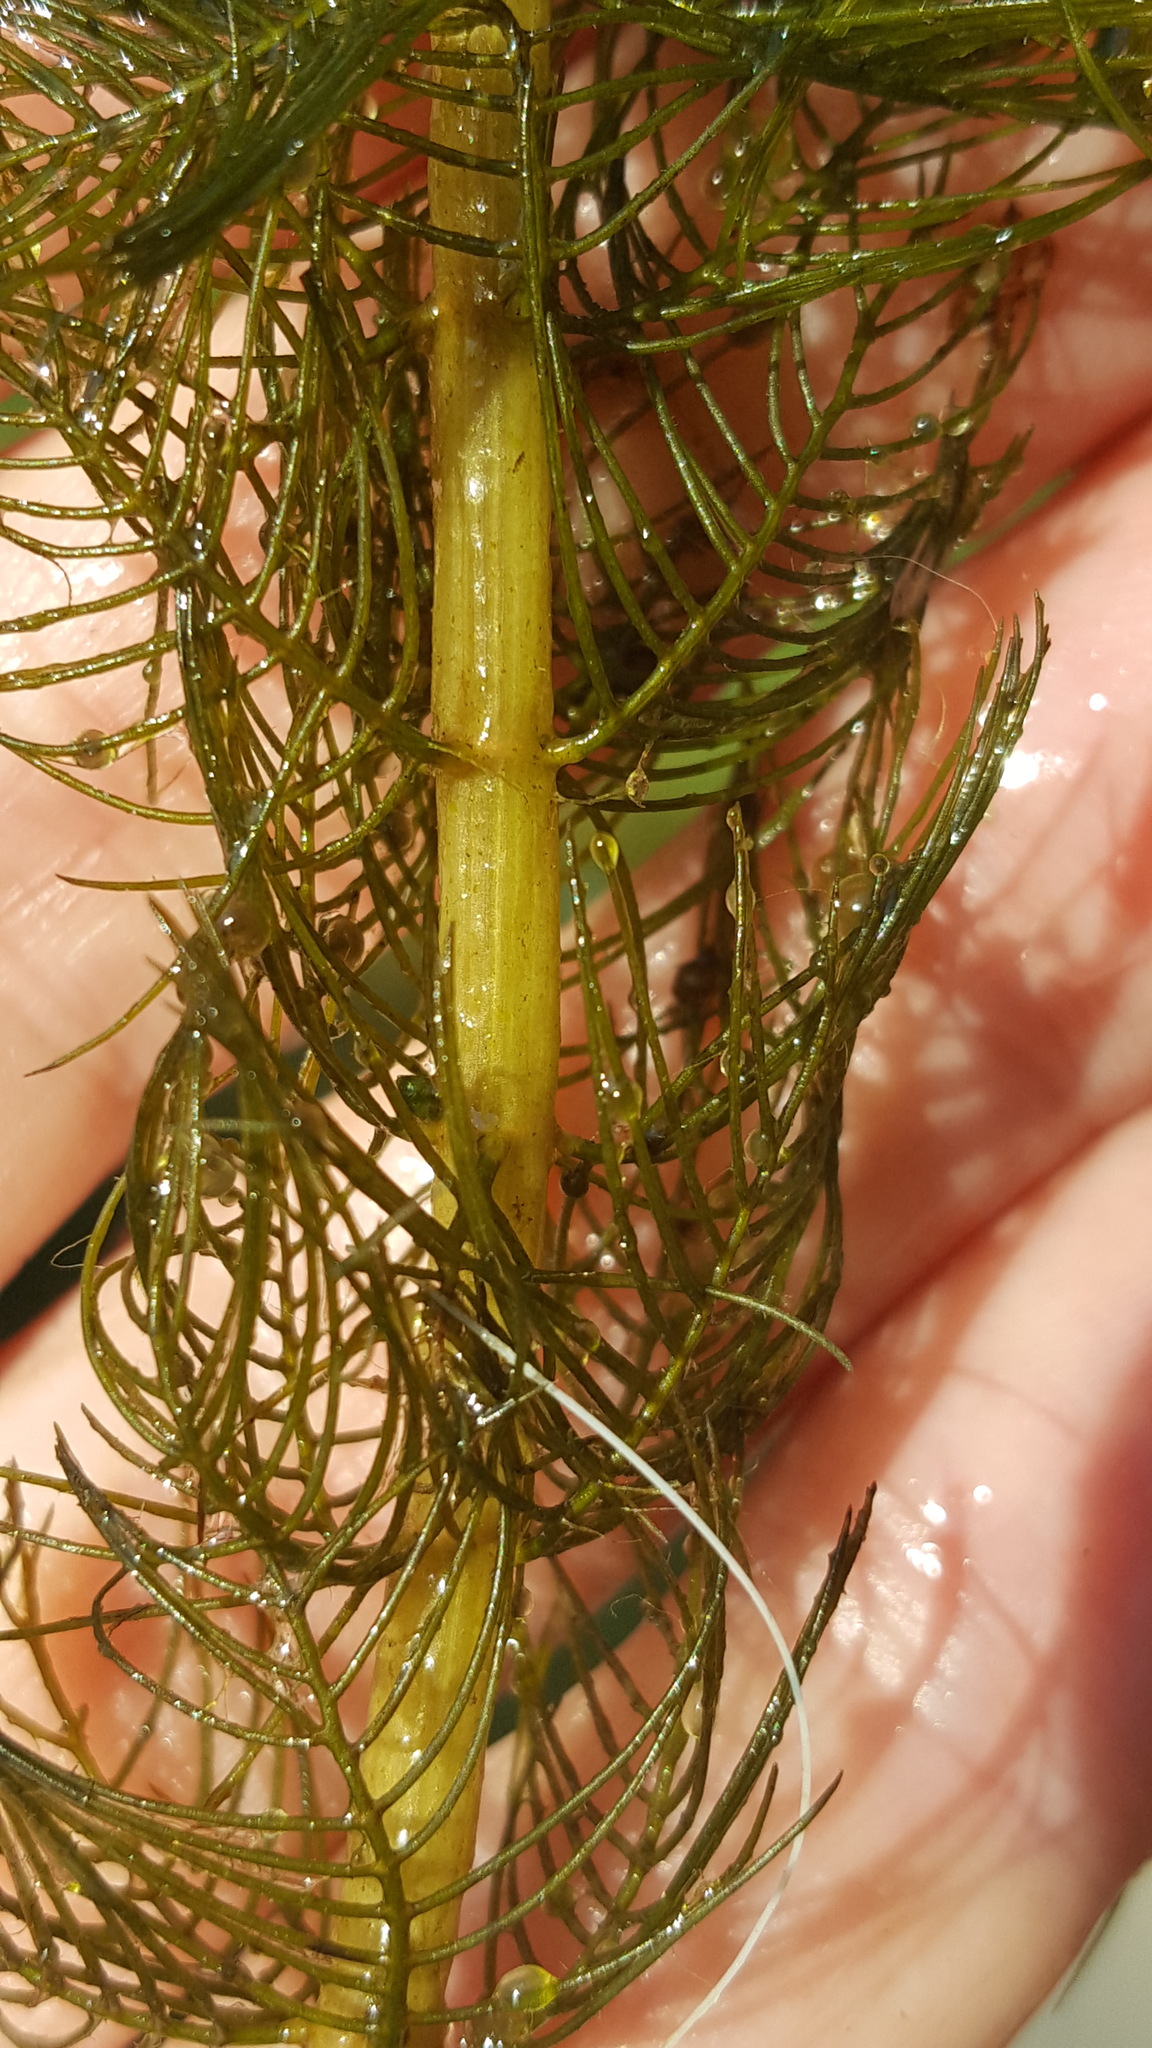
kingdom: Plantae
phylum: Tracheophyta
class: Magnoliopsida
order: Saxifragales
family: Haloragaceae
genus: Myriophyllum
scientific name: Myriophyllum sibiricum
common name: Siberian water-milfoil
